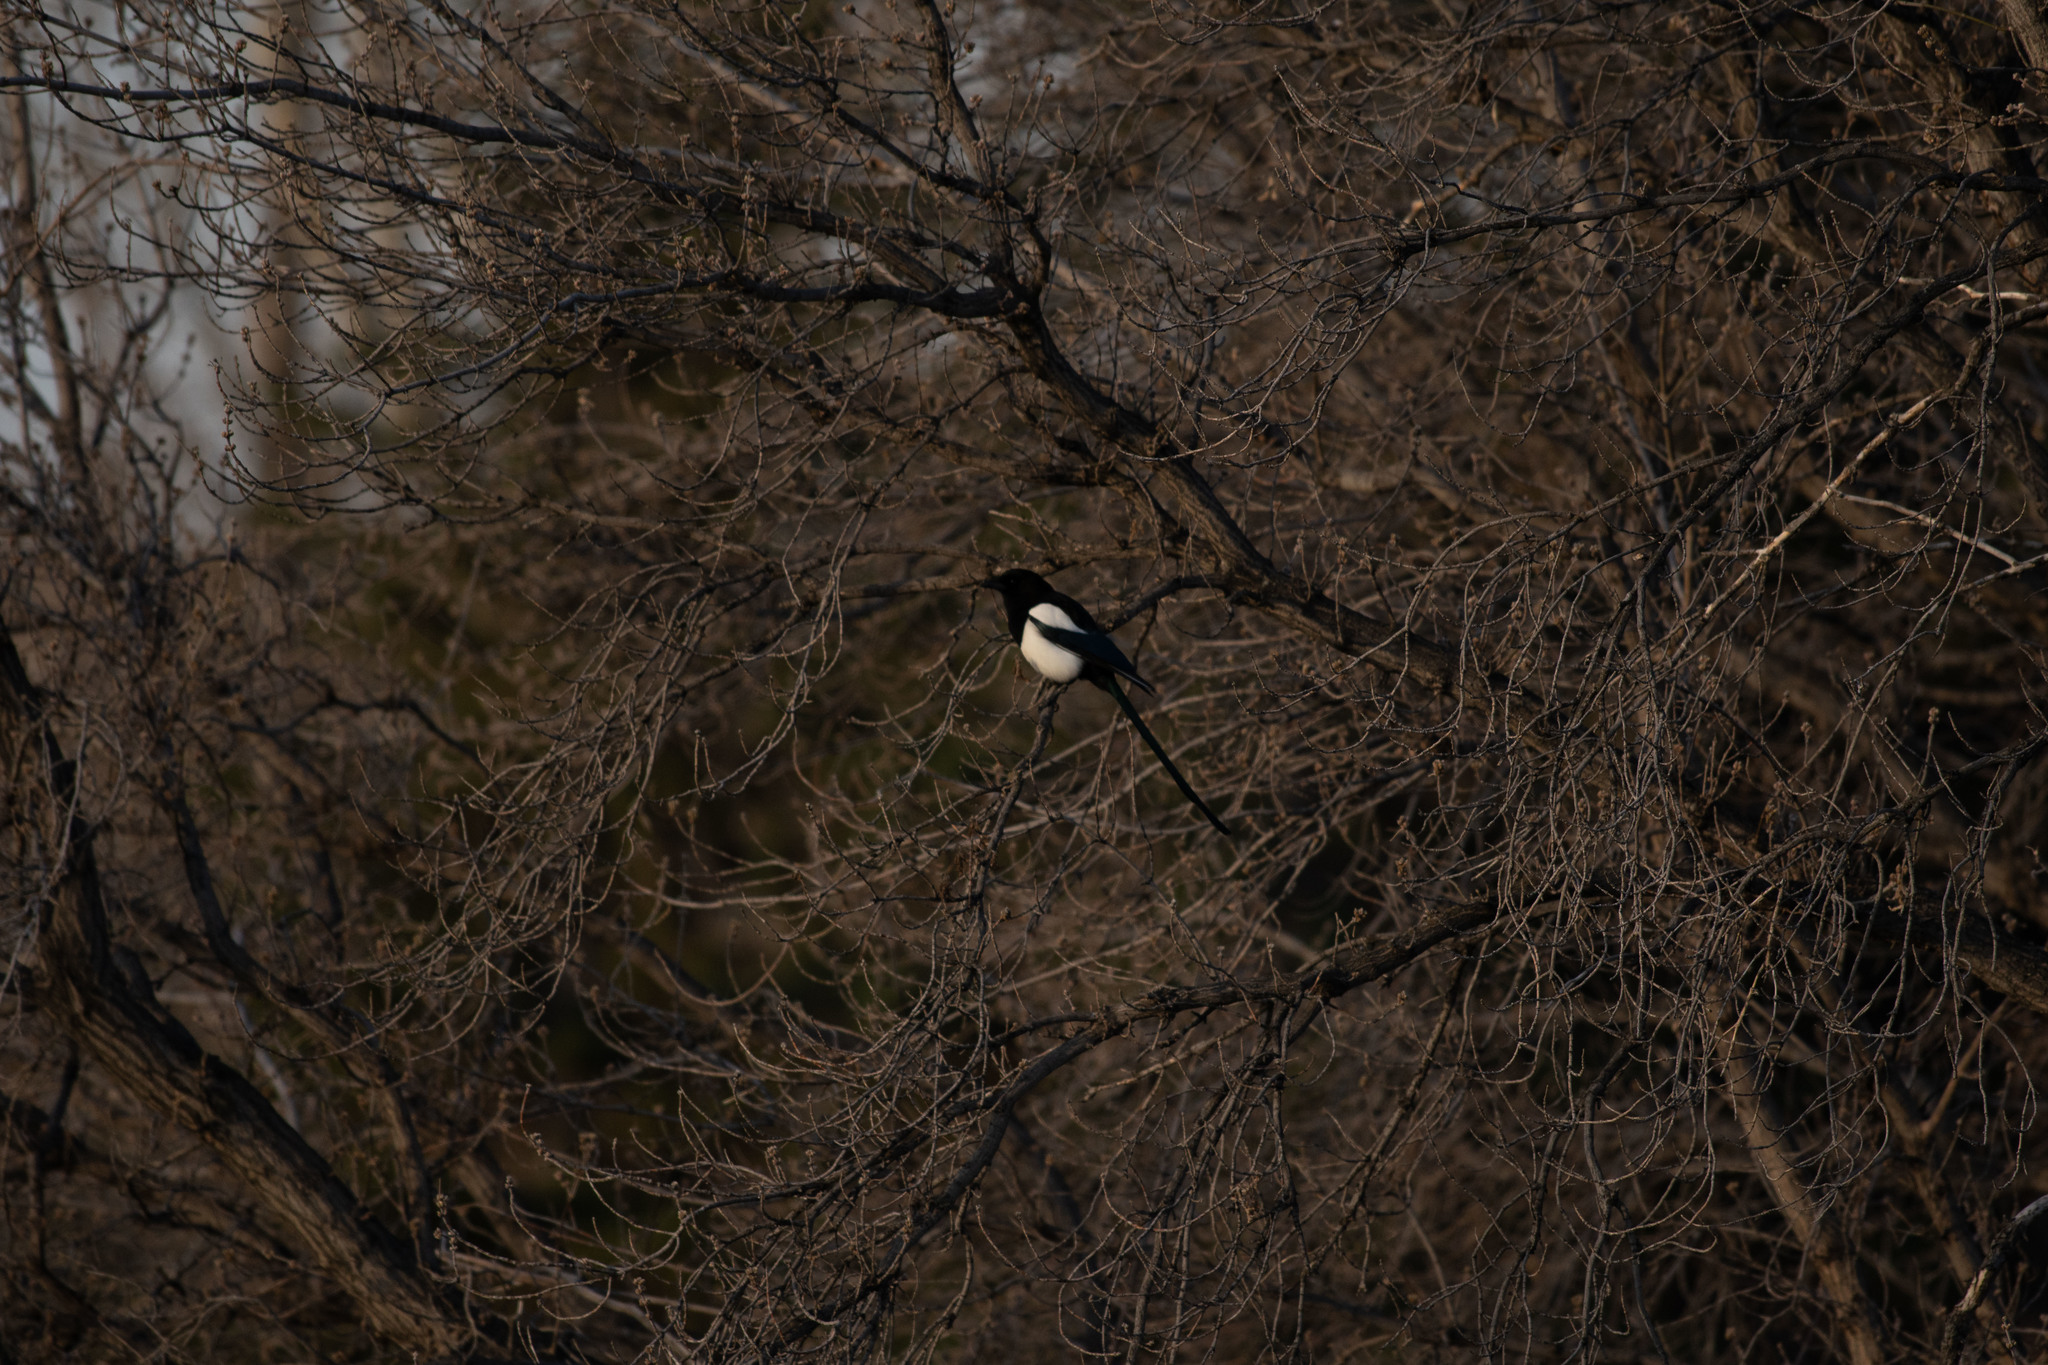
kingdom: Animalia
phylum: Chordata
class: Aves
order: Passeriformes
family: Corvidae
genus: Pica
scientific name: Pica hudsonia
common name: Black-billed magpie
